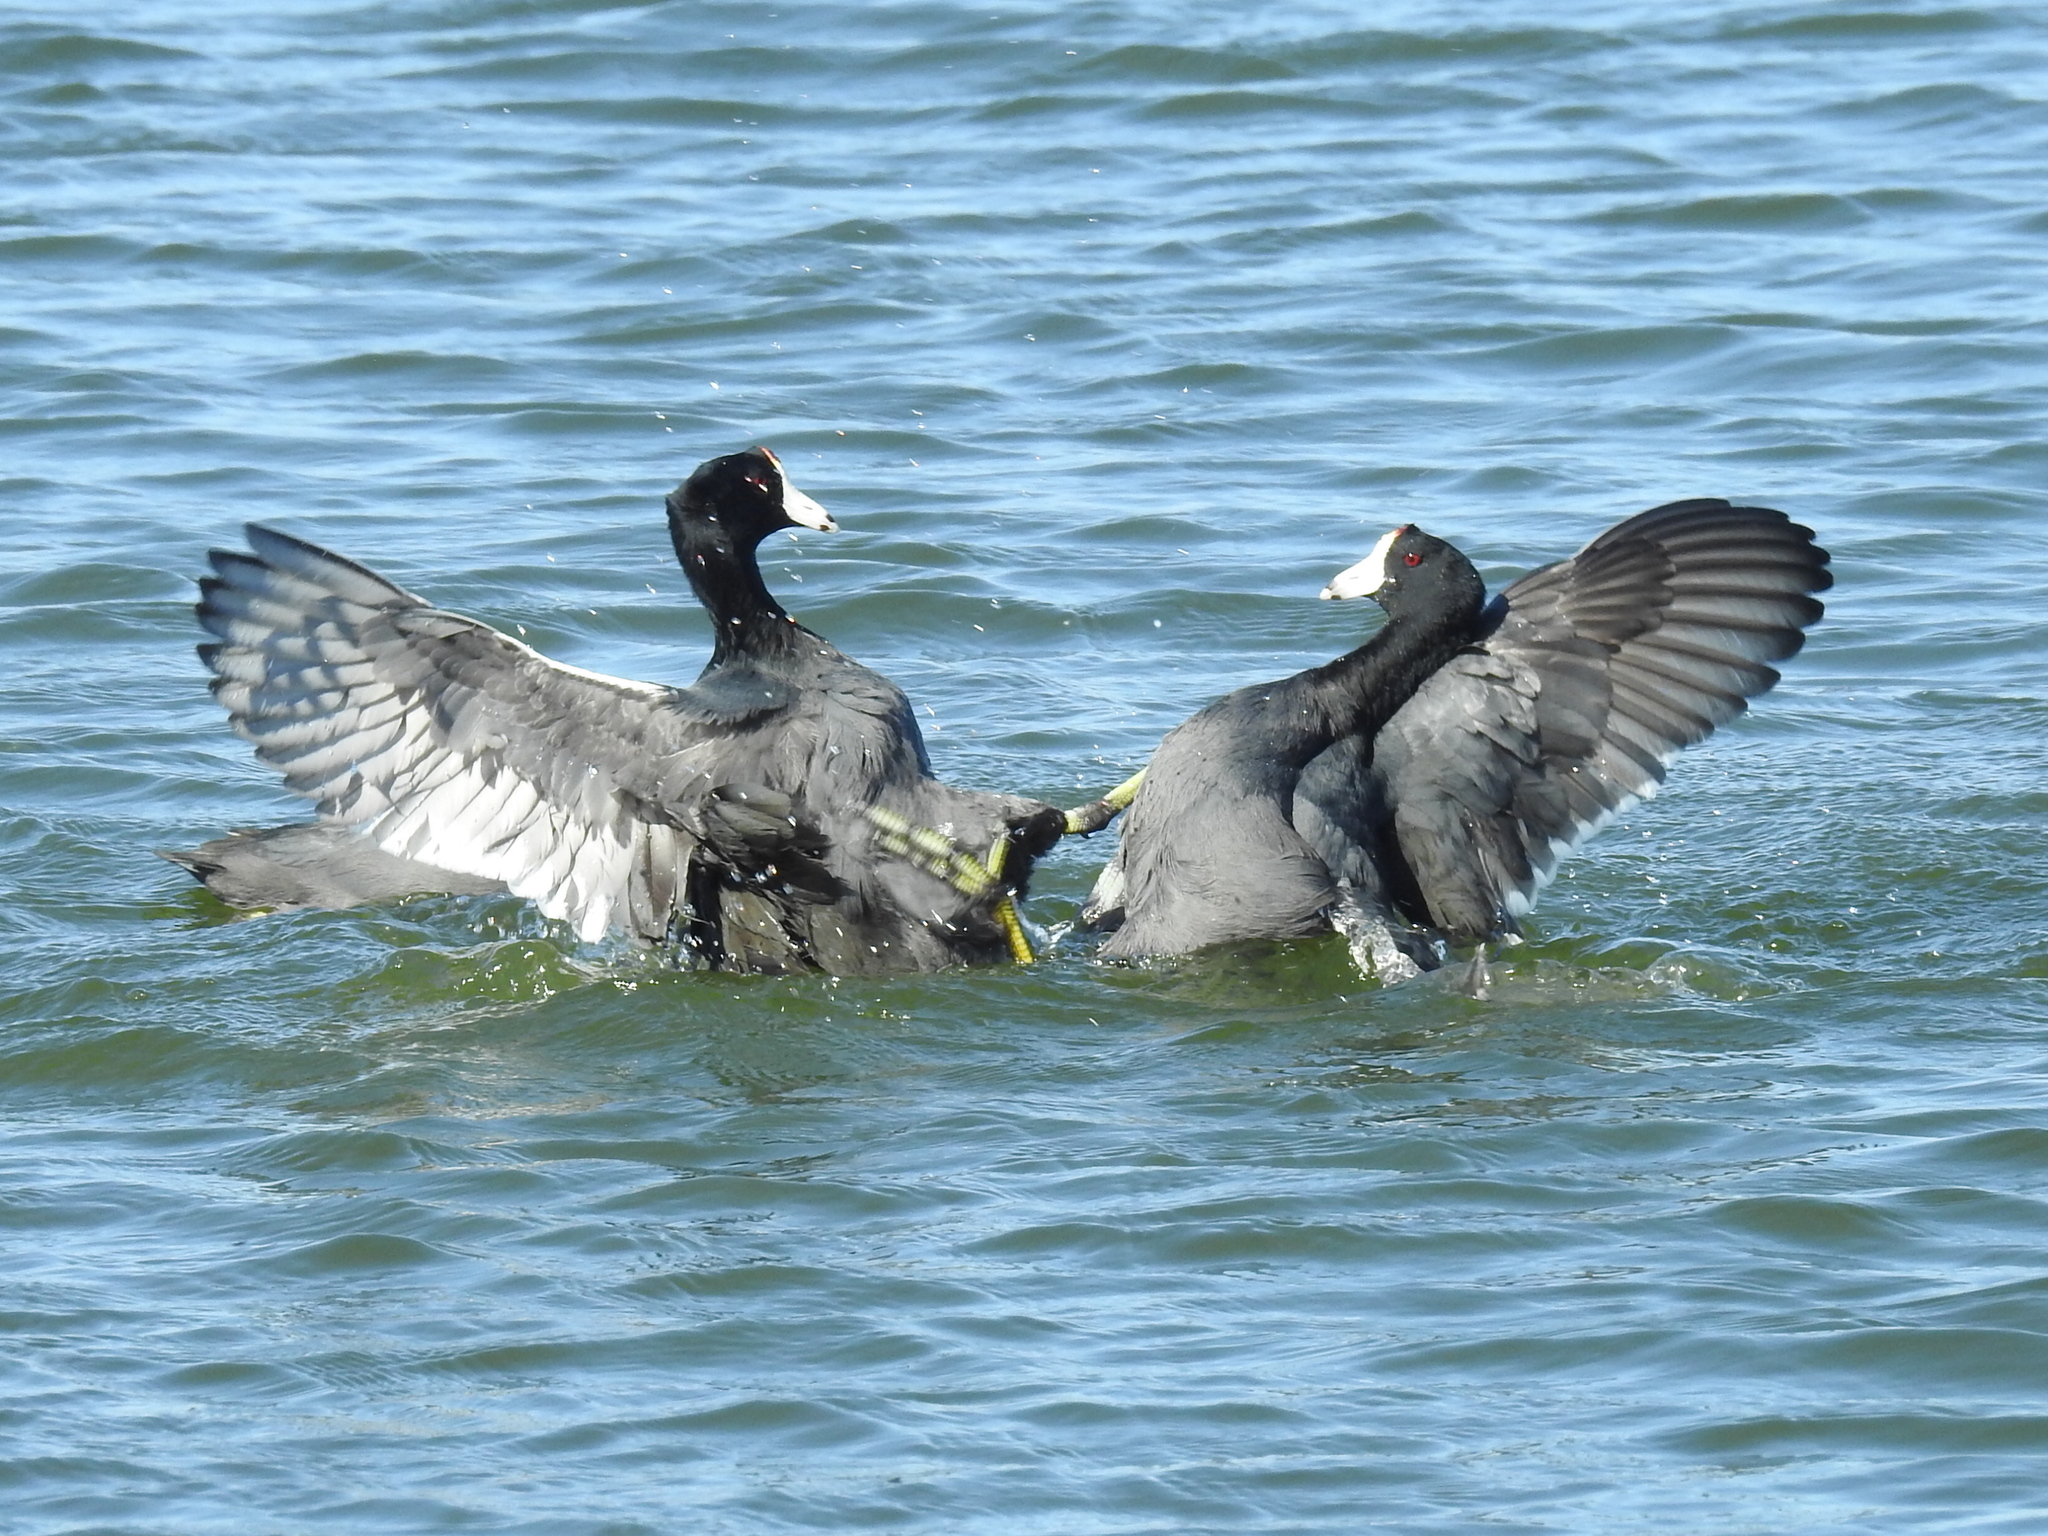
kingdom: Animalia
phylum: Chordata
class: Aves
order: Gruiformes
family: Rallidae
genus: Fulica
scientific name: Fulica americana
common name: American coot
